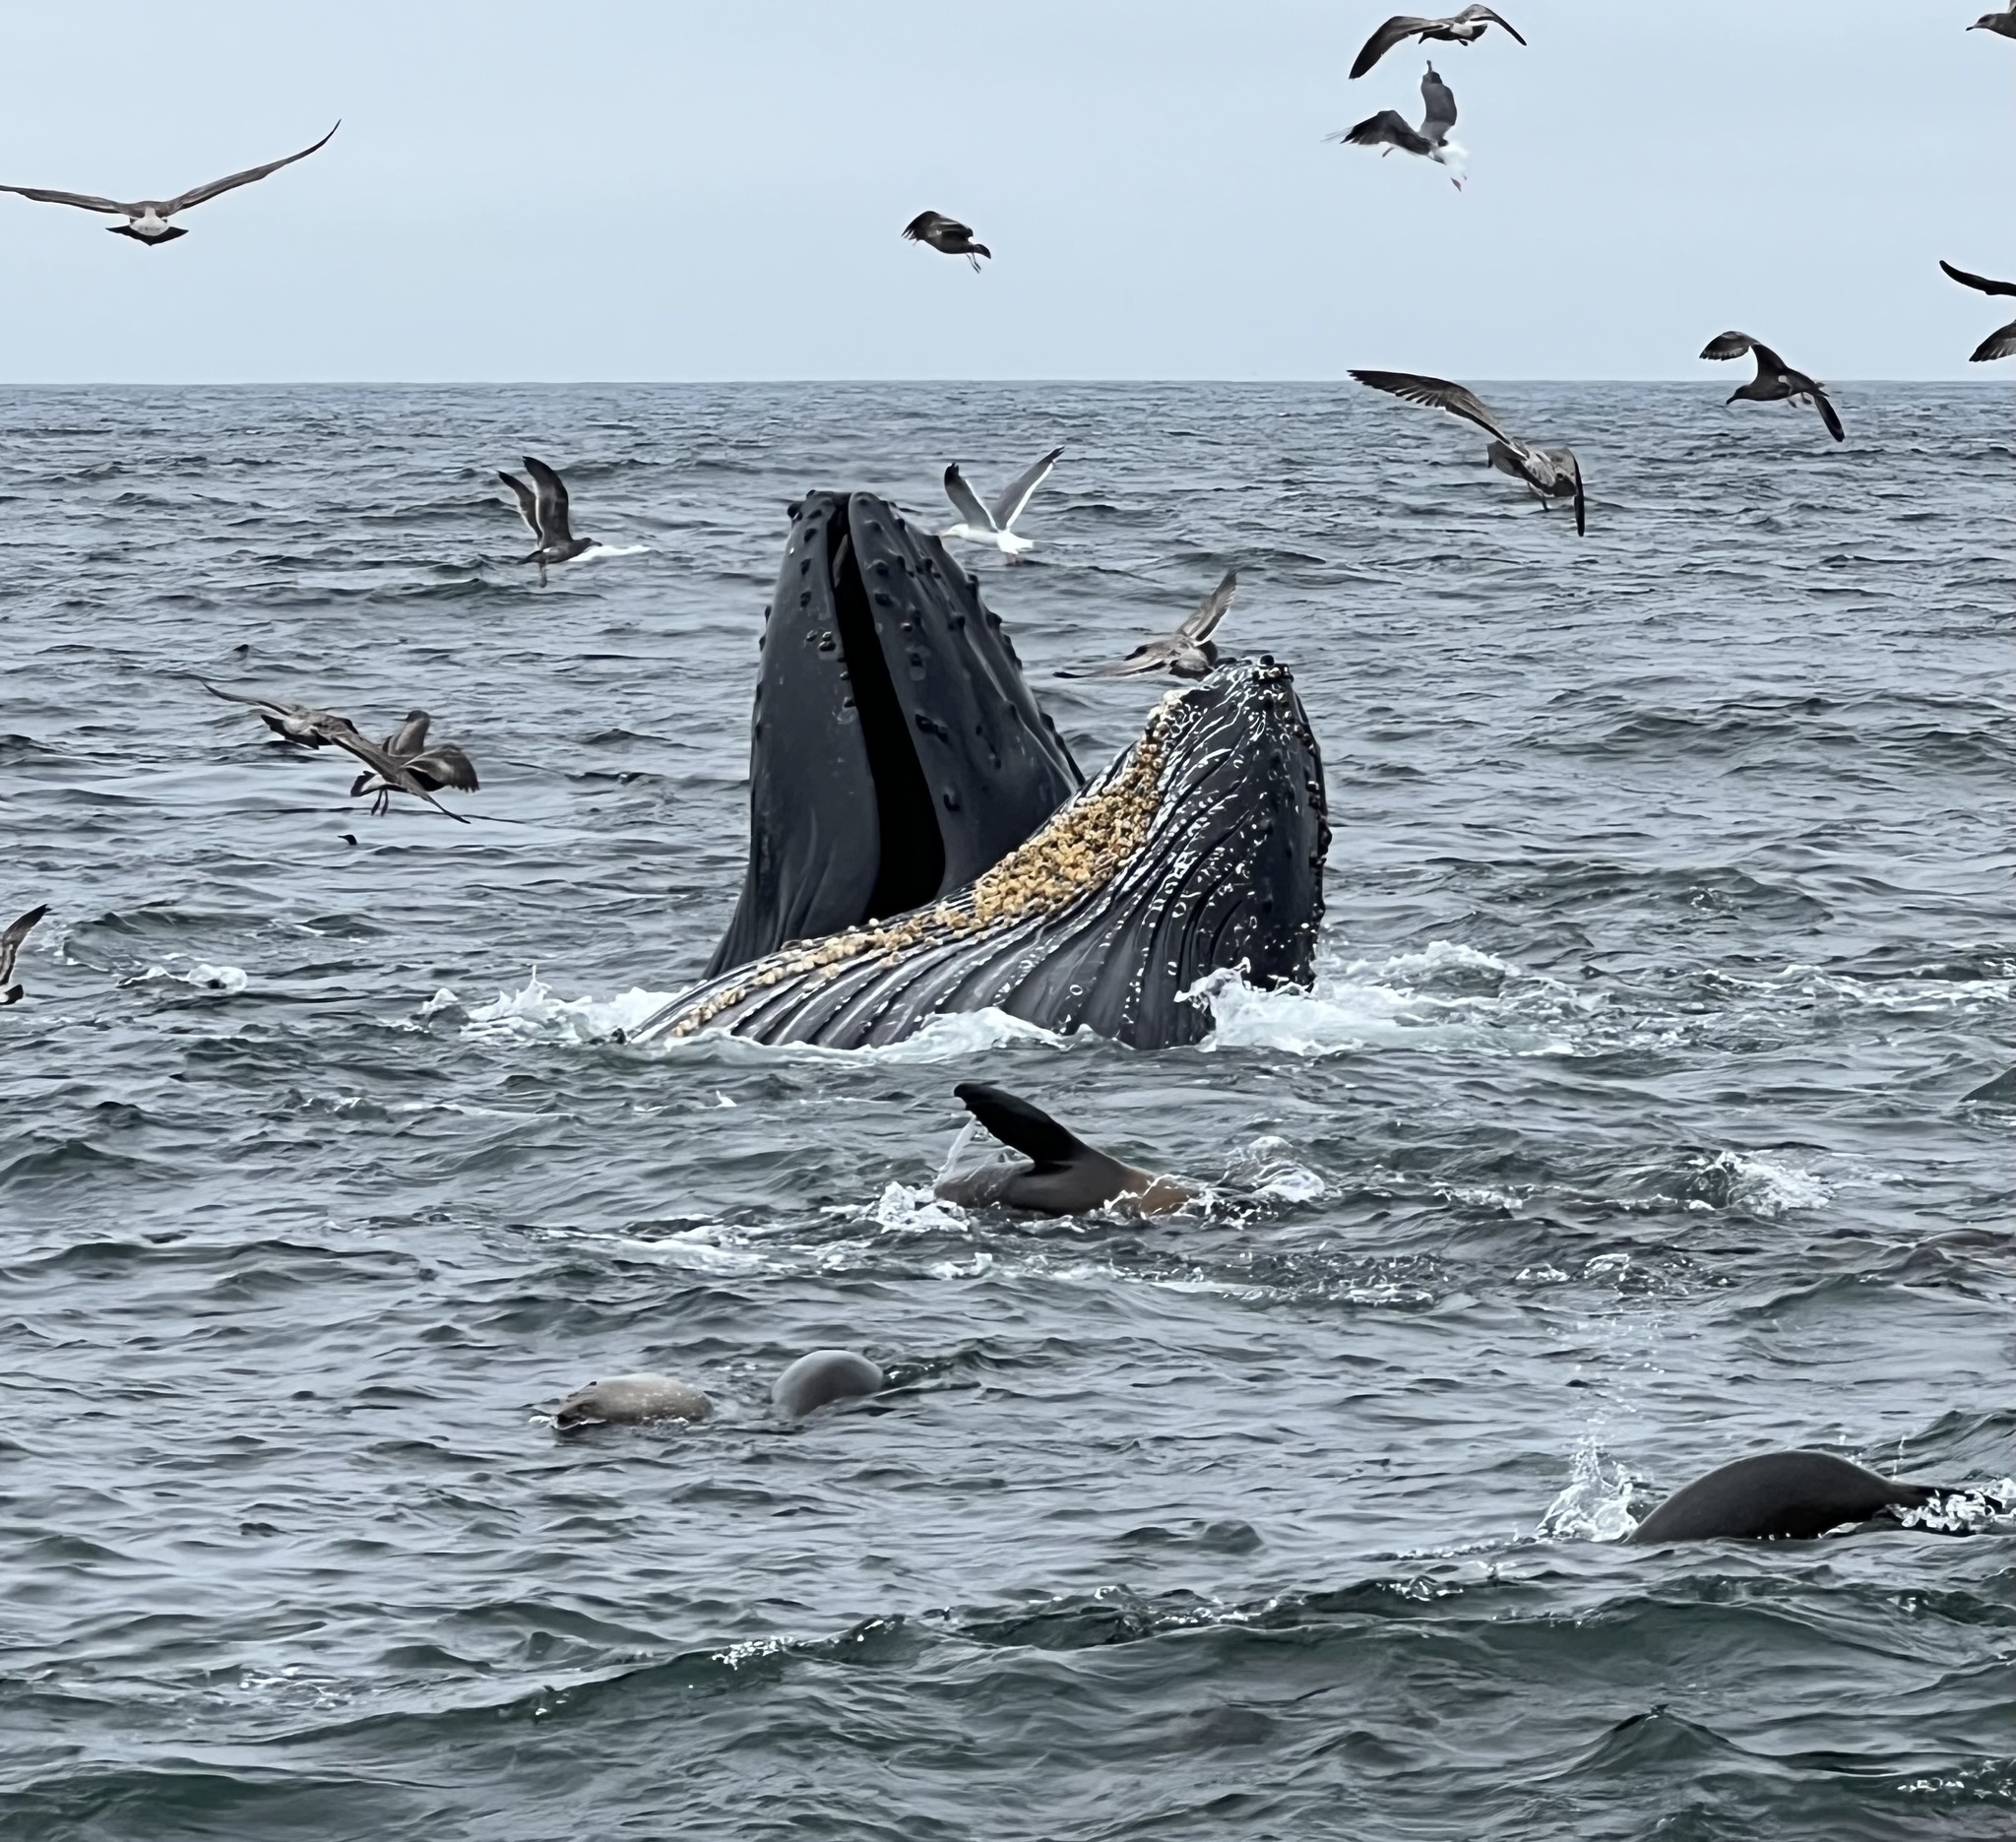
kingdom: Animalia
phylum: Chordata
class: Mammalia
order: Cetacea
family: Balaenopteridae
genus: Megaptera
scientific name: Megaptera novaeangliae
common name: Humpback whale
